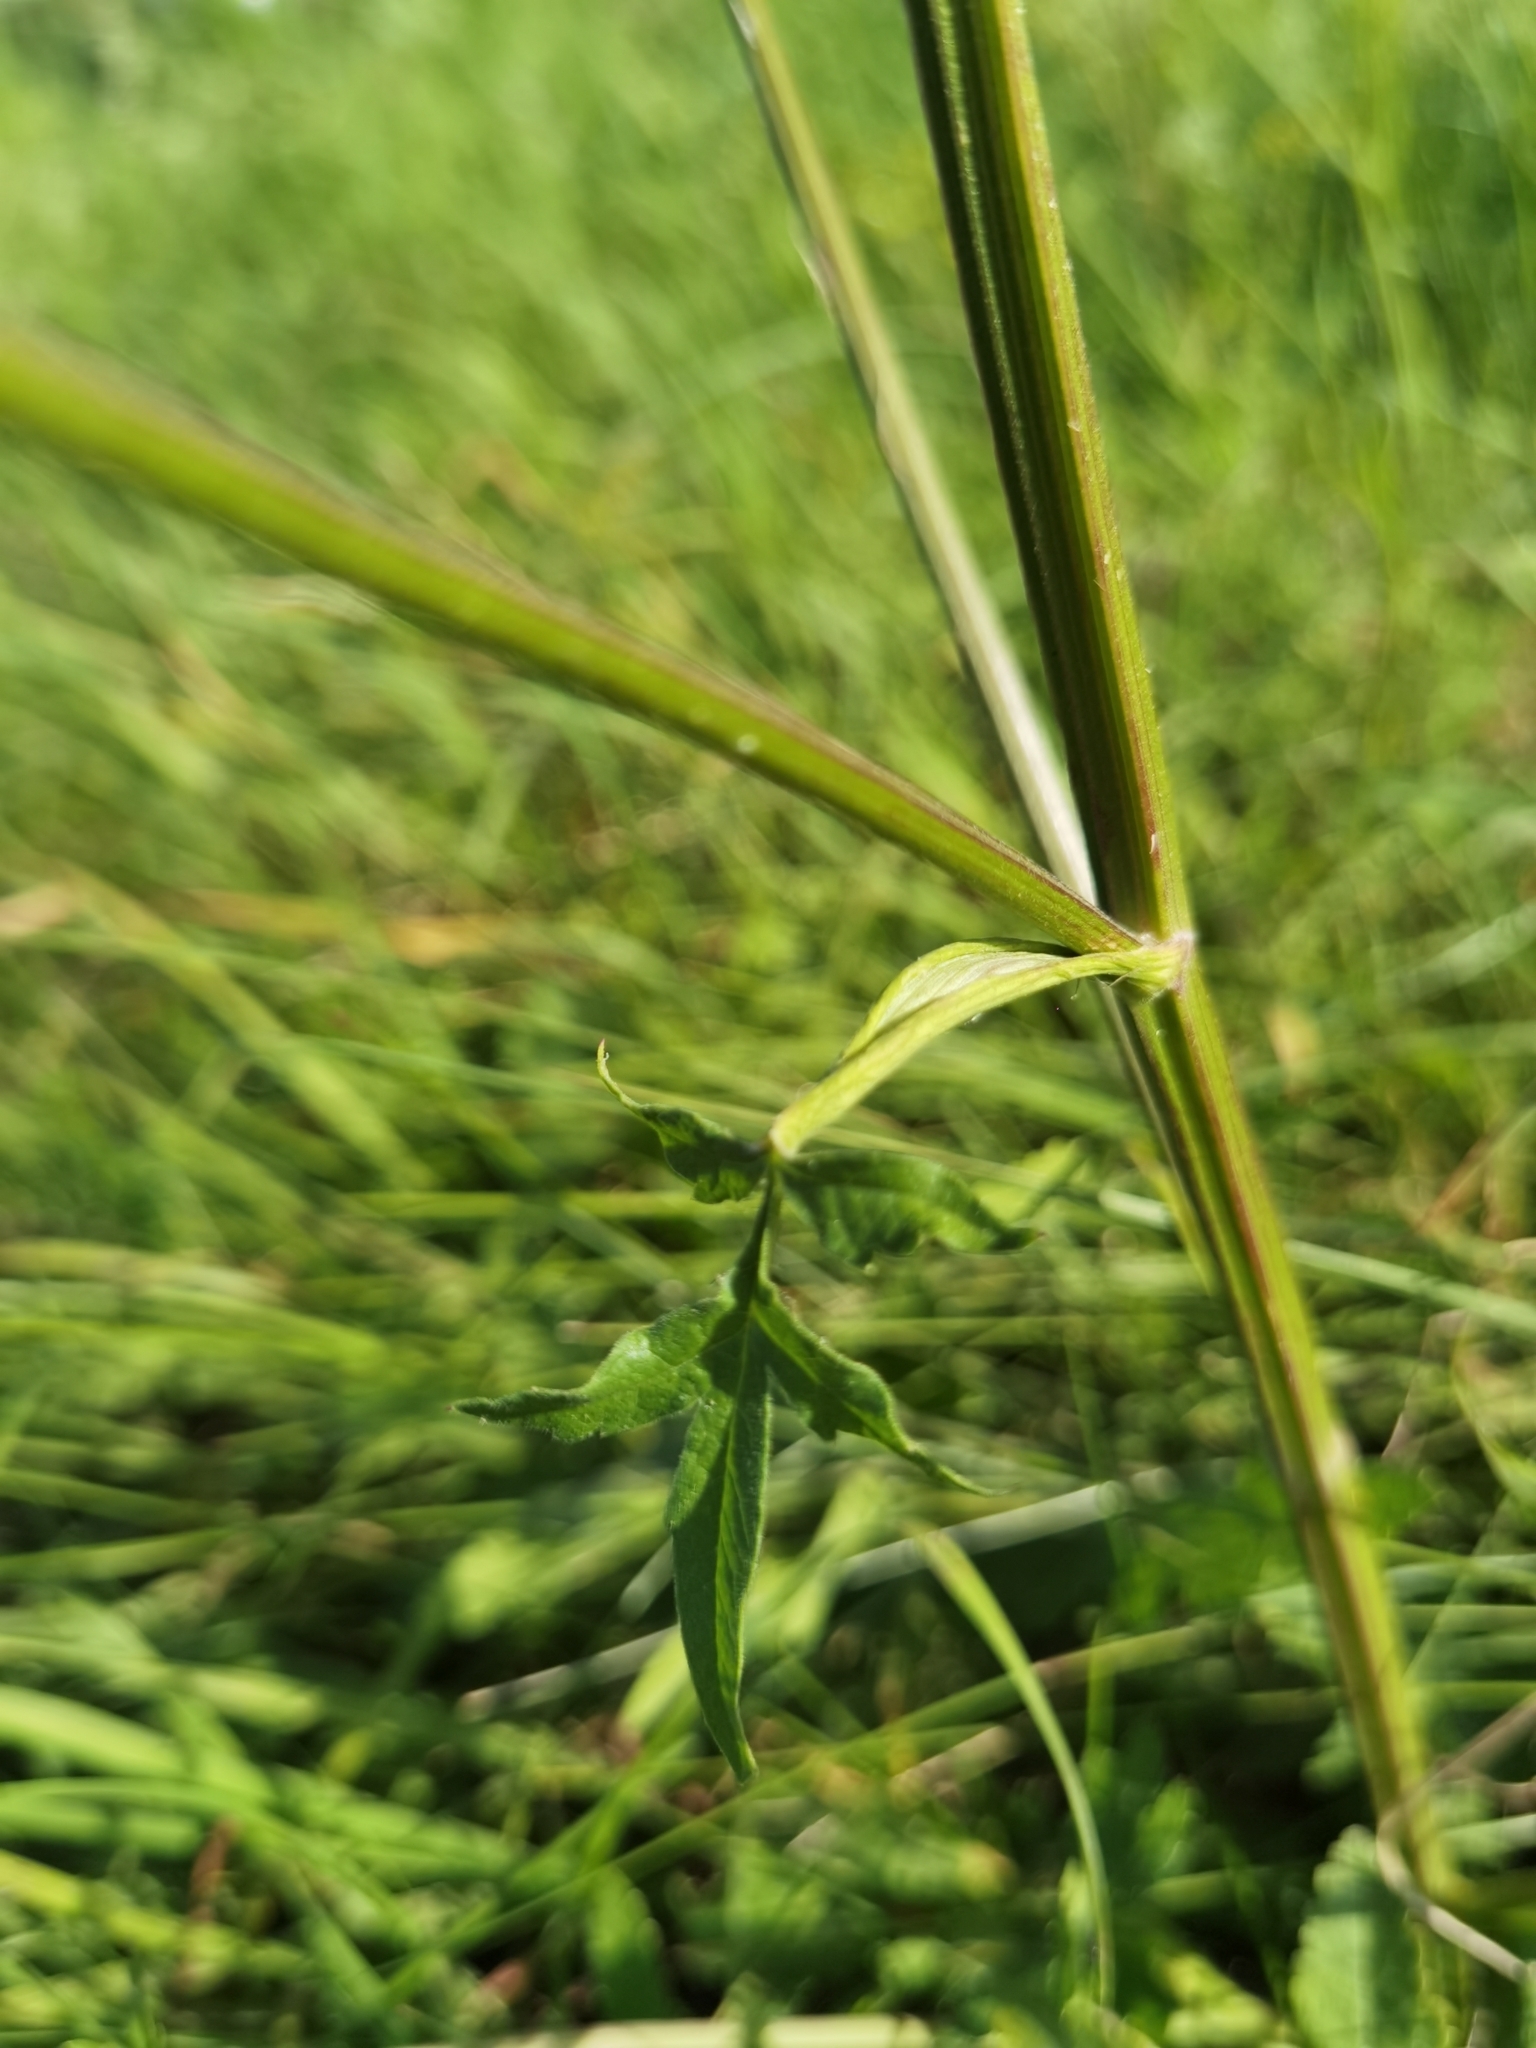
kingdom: Plantae
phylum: Tracheophyta
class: Magnoliopsida
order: Apiales
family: Apiaceae
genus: Pastinaca
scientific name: Pastinaca sativa
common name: Wild parsnip
